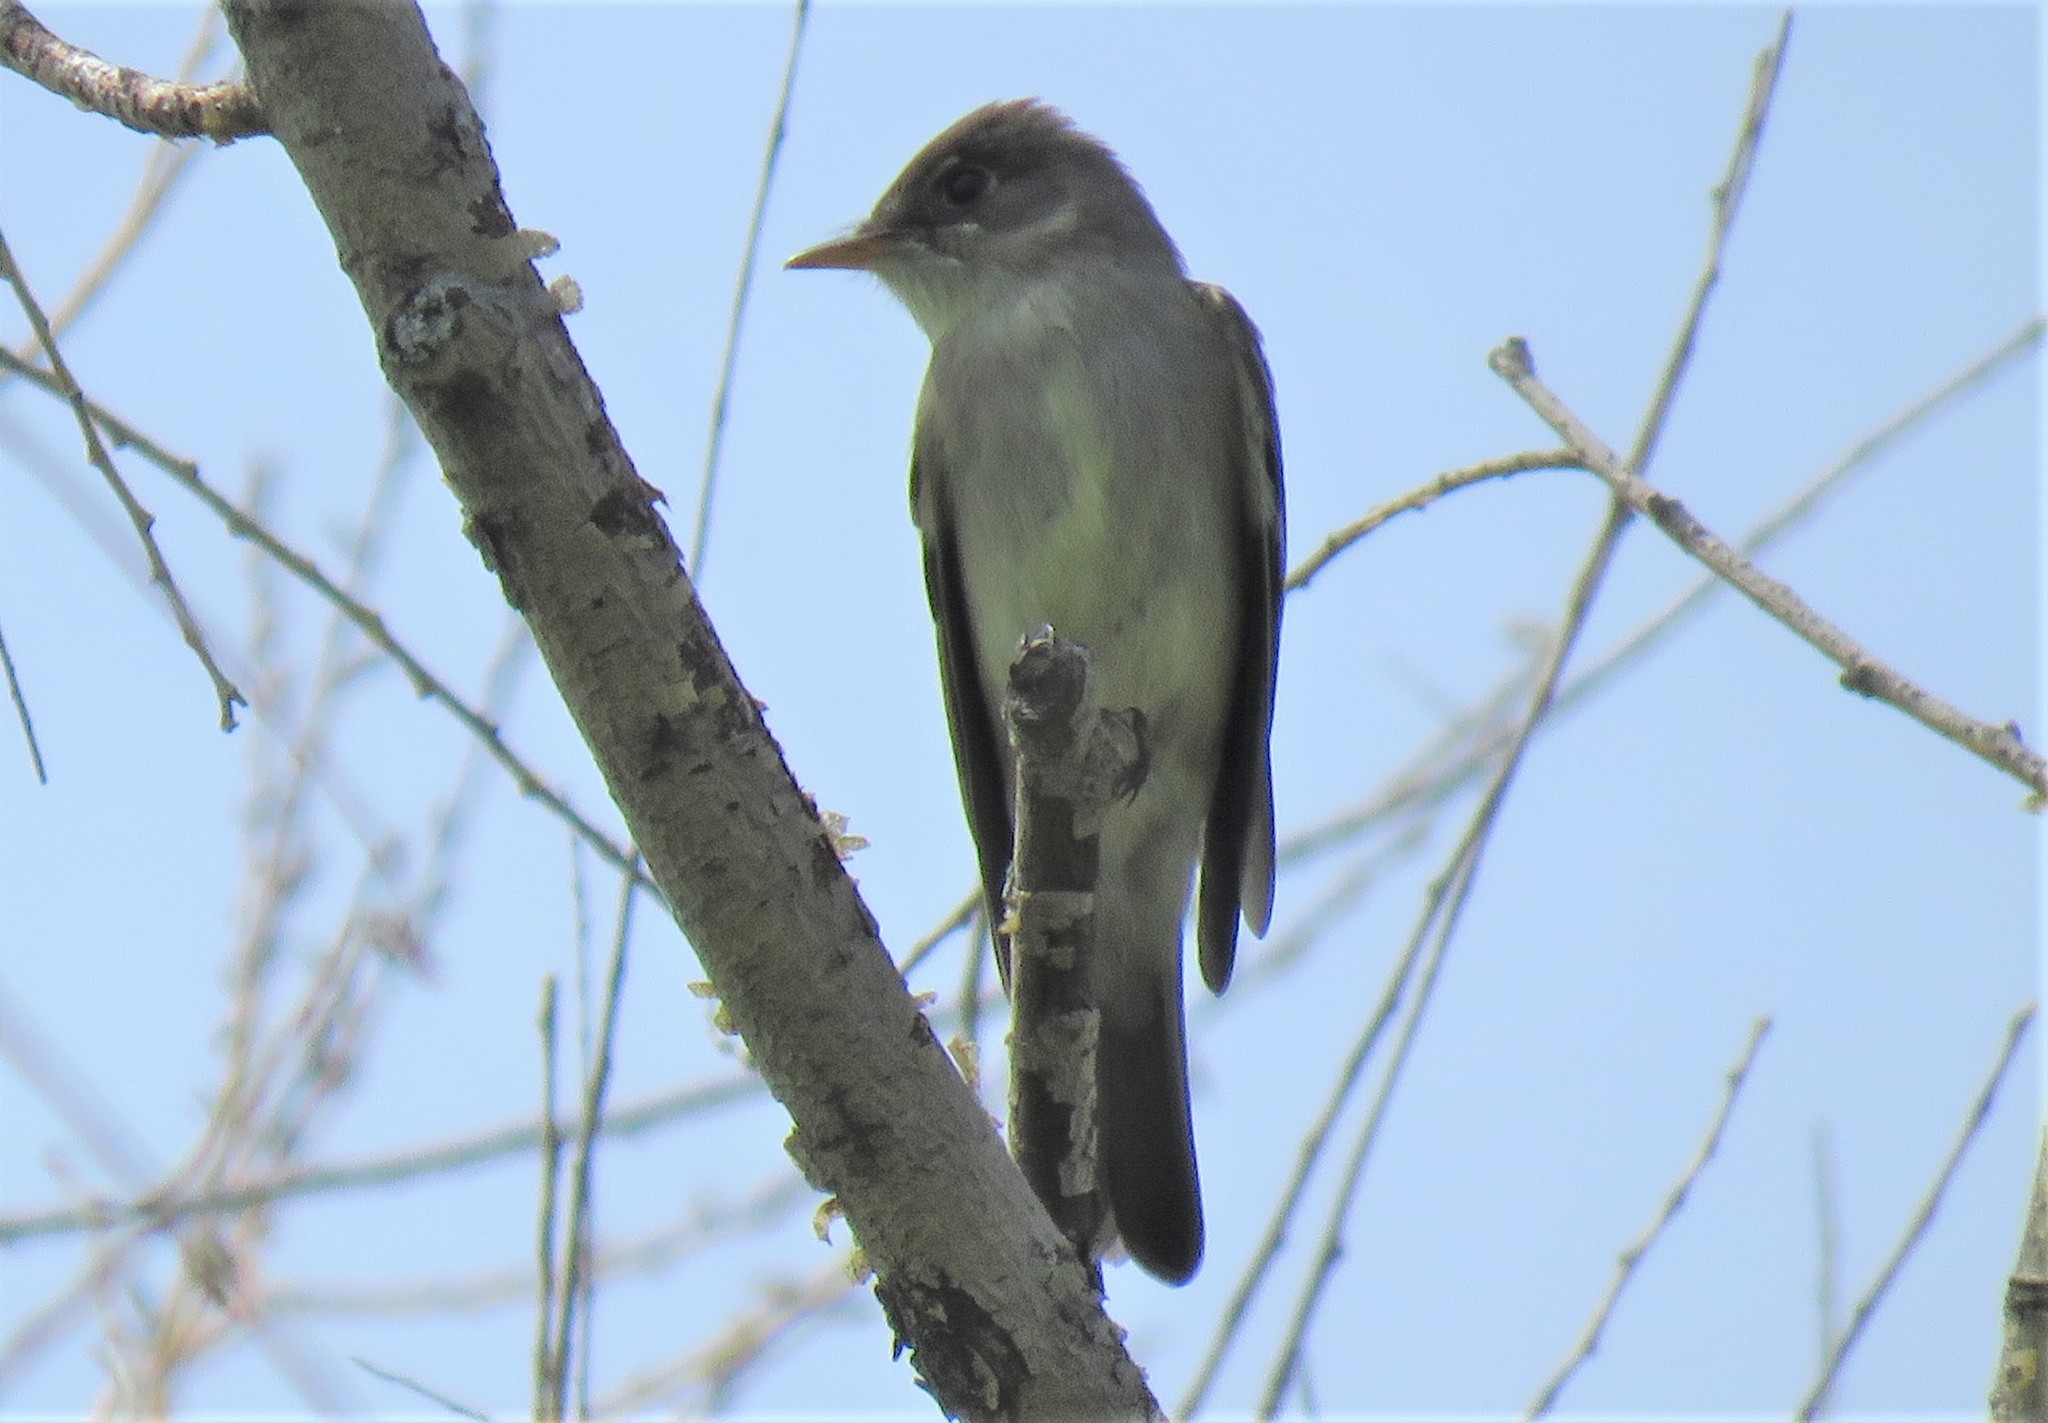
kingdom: Animalia
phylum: Chordata
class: Aves
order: Passeriformes
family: Tyrannidae
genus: Contopus
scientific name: Contopus virens
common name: Eastern wood-pewee
